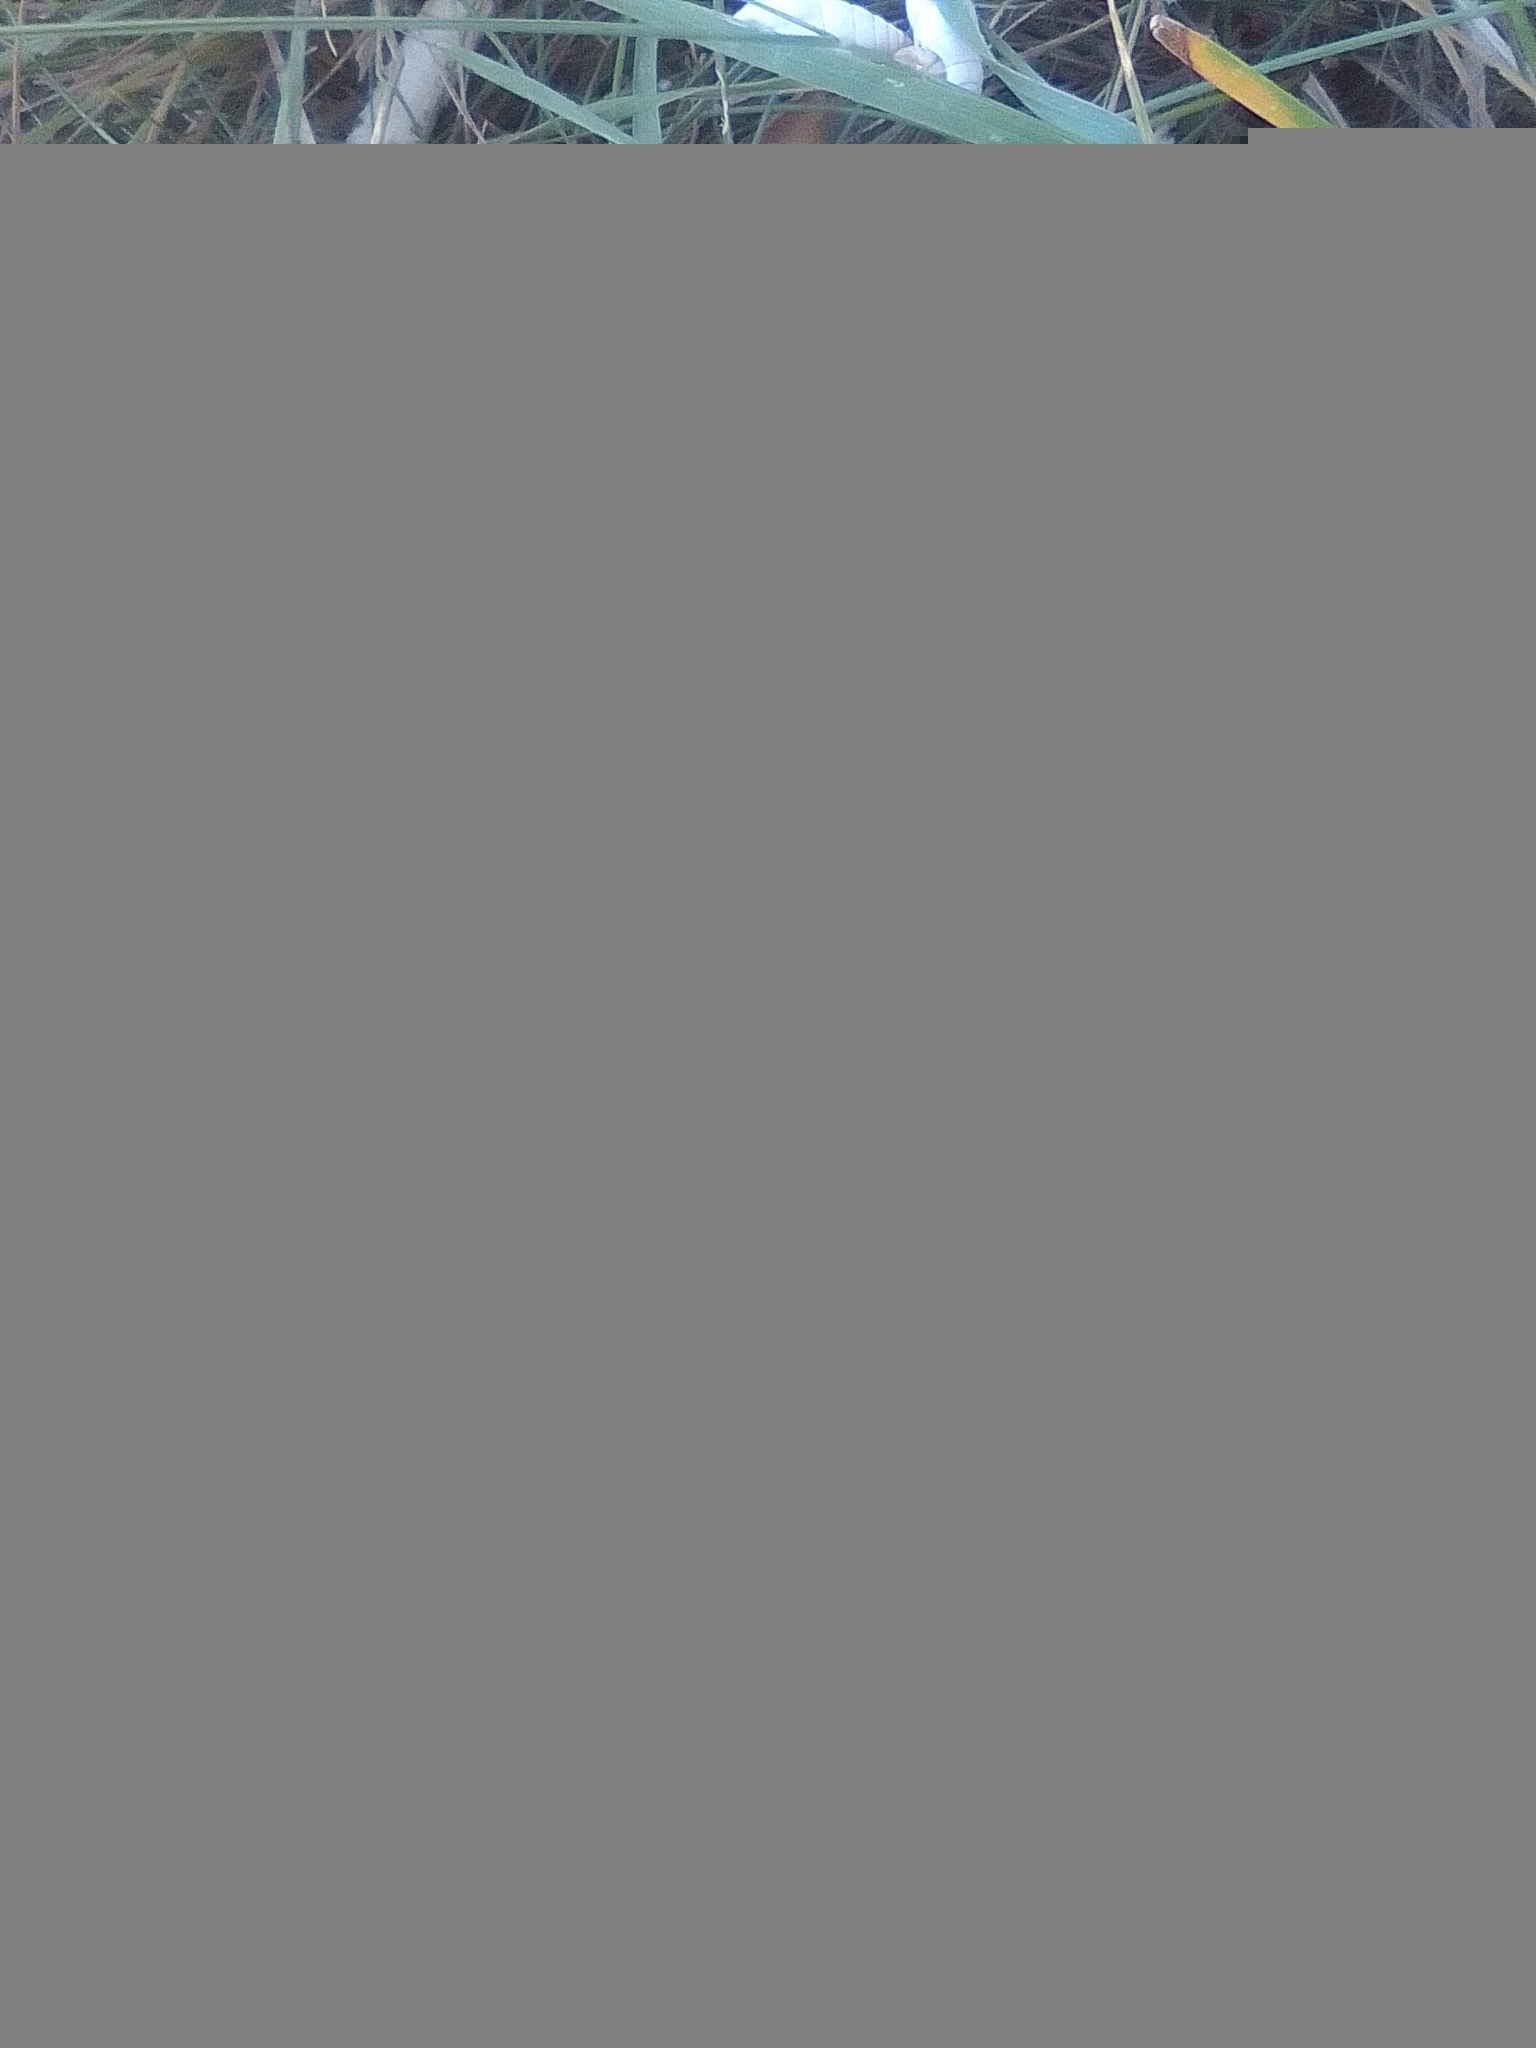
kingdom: Animalia
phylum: Mollusca
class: Gastropoda
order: Stylommatophora
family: Enidae
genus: Brephulopsis
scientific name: Brephulopsis cylindrica
